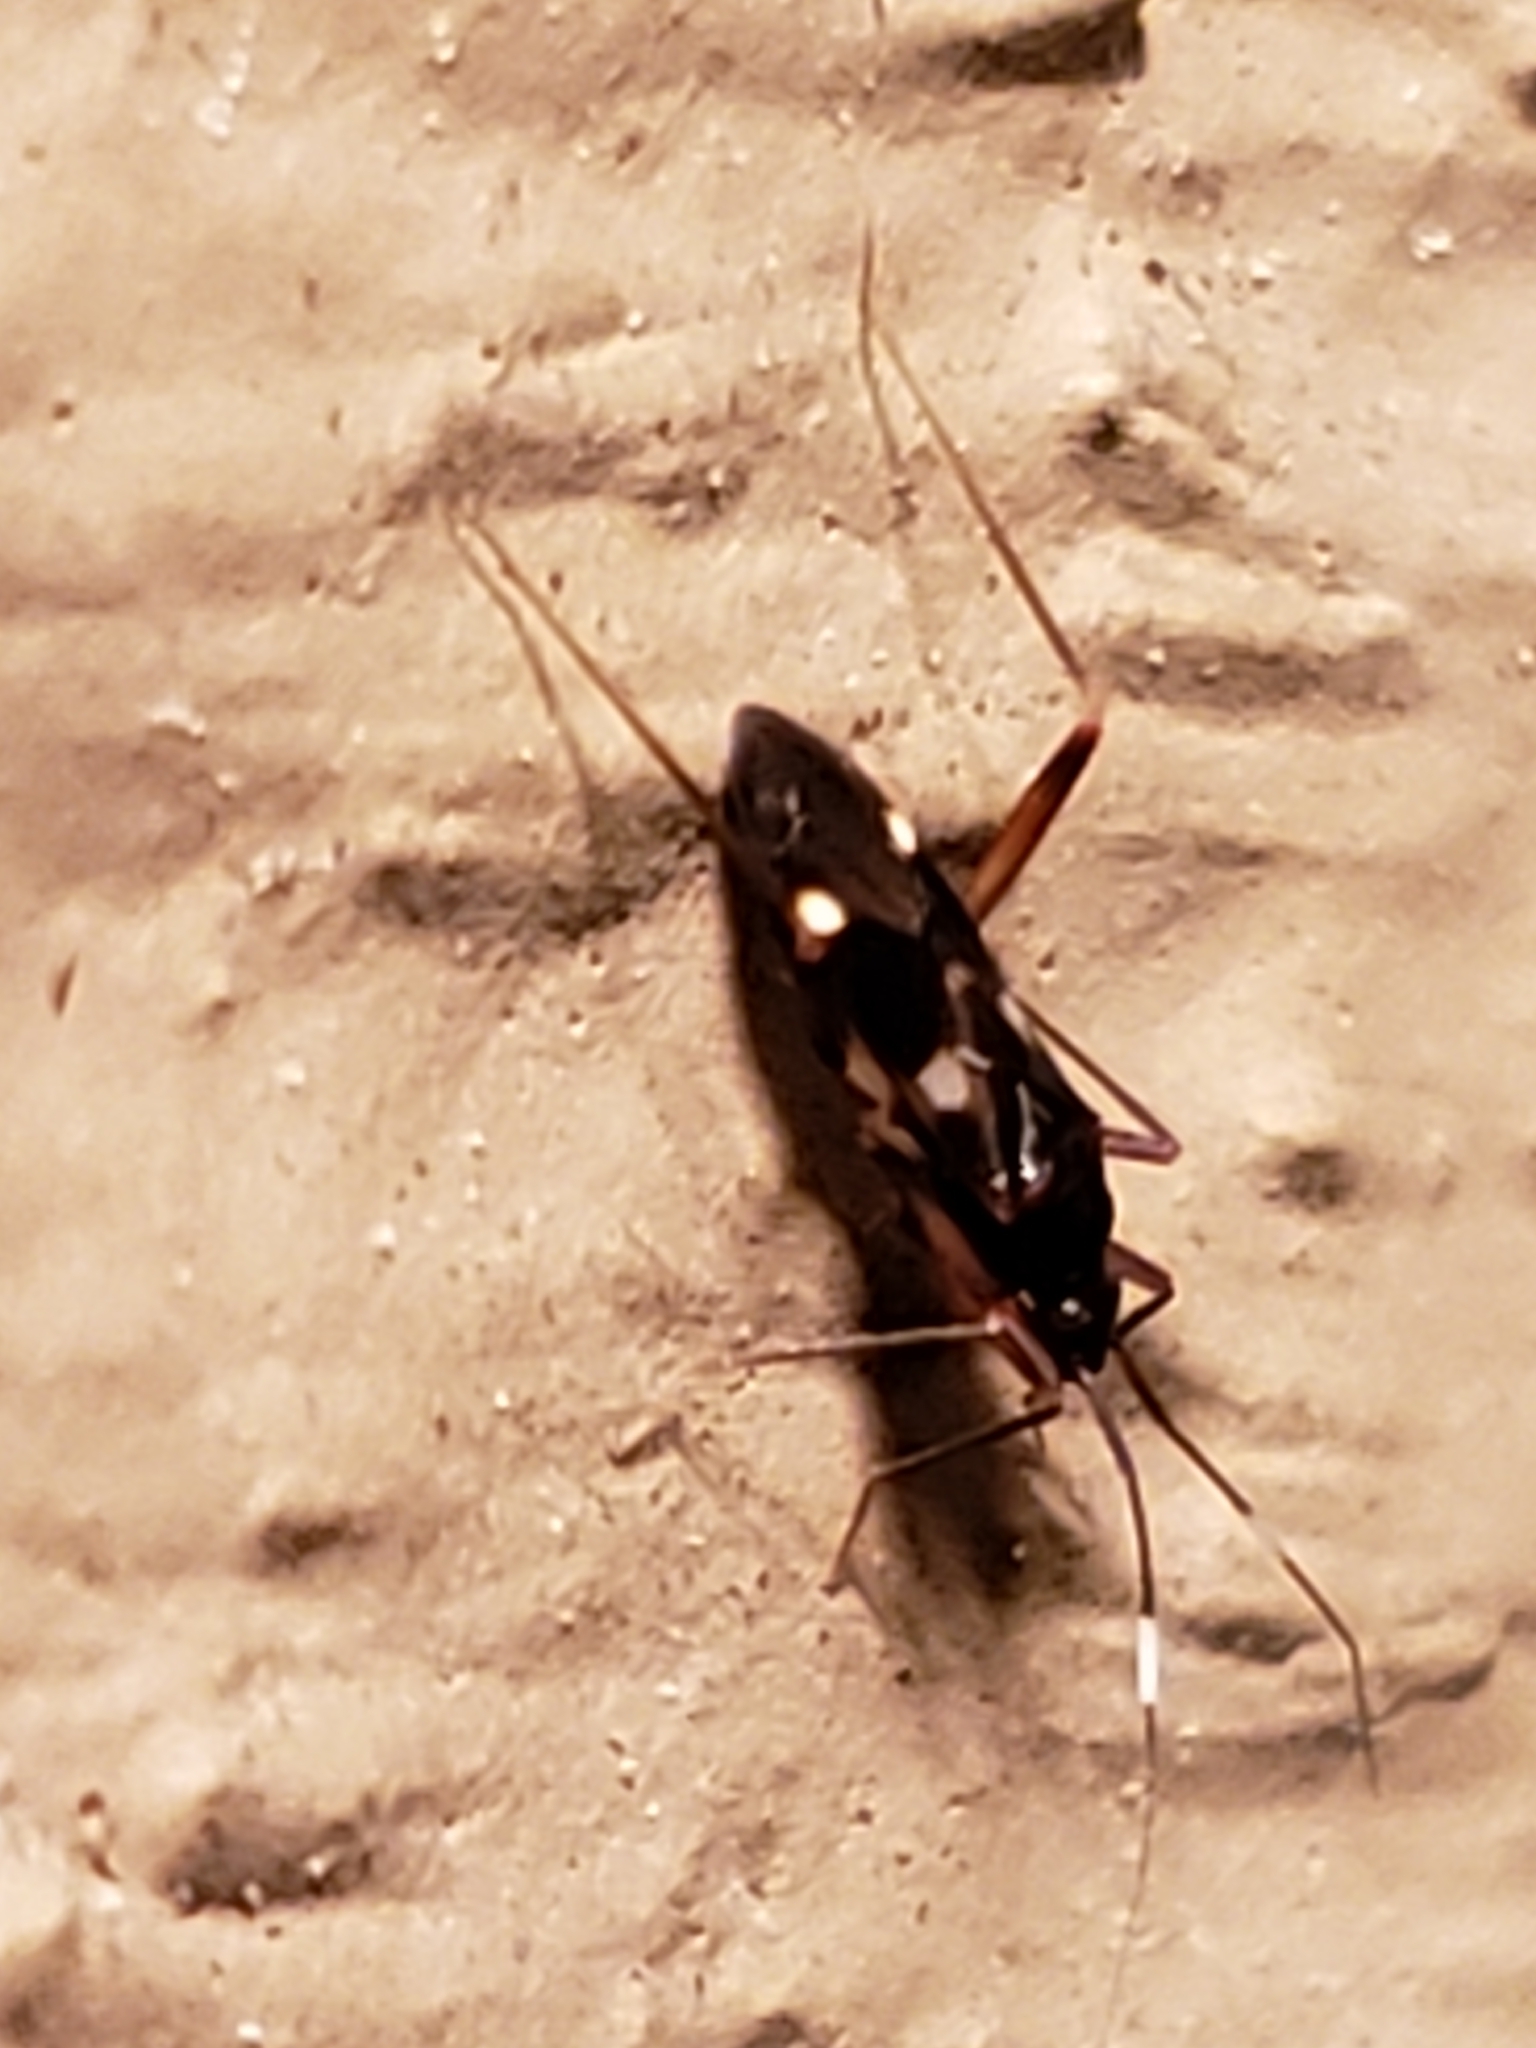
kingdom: Animalia
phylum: Arthropoda
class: Insecta
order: Hemiptera
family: Miridae
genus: Fulvius
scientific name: Fulvius imbecilis
